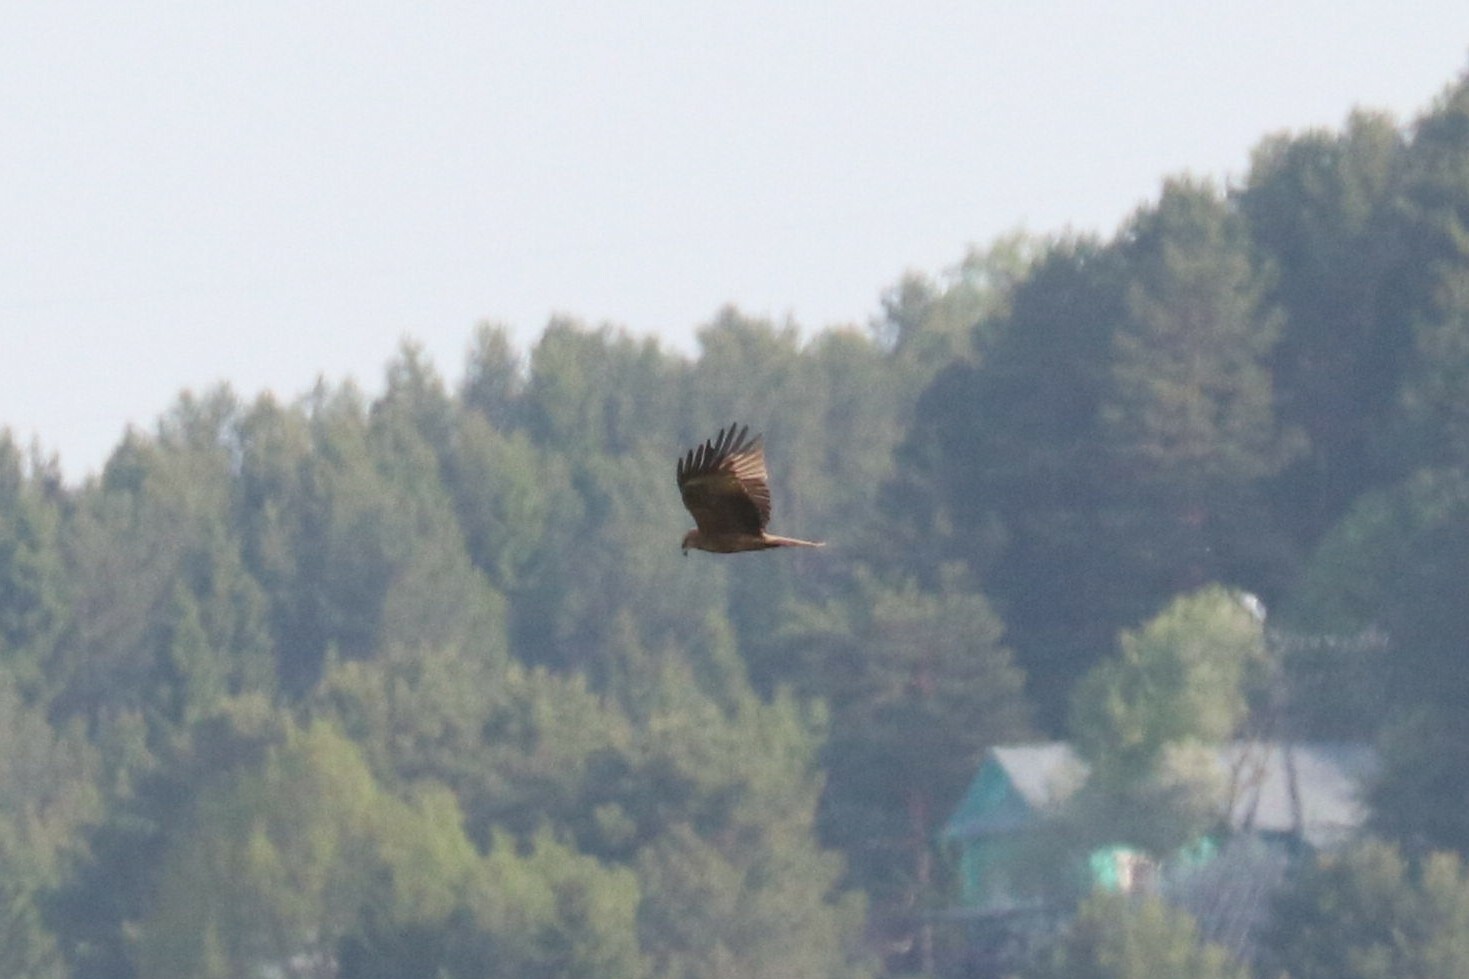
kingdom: Animalia
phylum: Chordata
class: Aves
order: Accipitriformes
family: Accipitridae
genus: Milvus
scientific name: Milvus migrans
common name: Black kite
